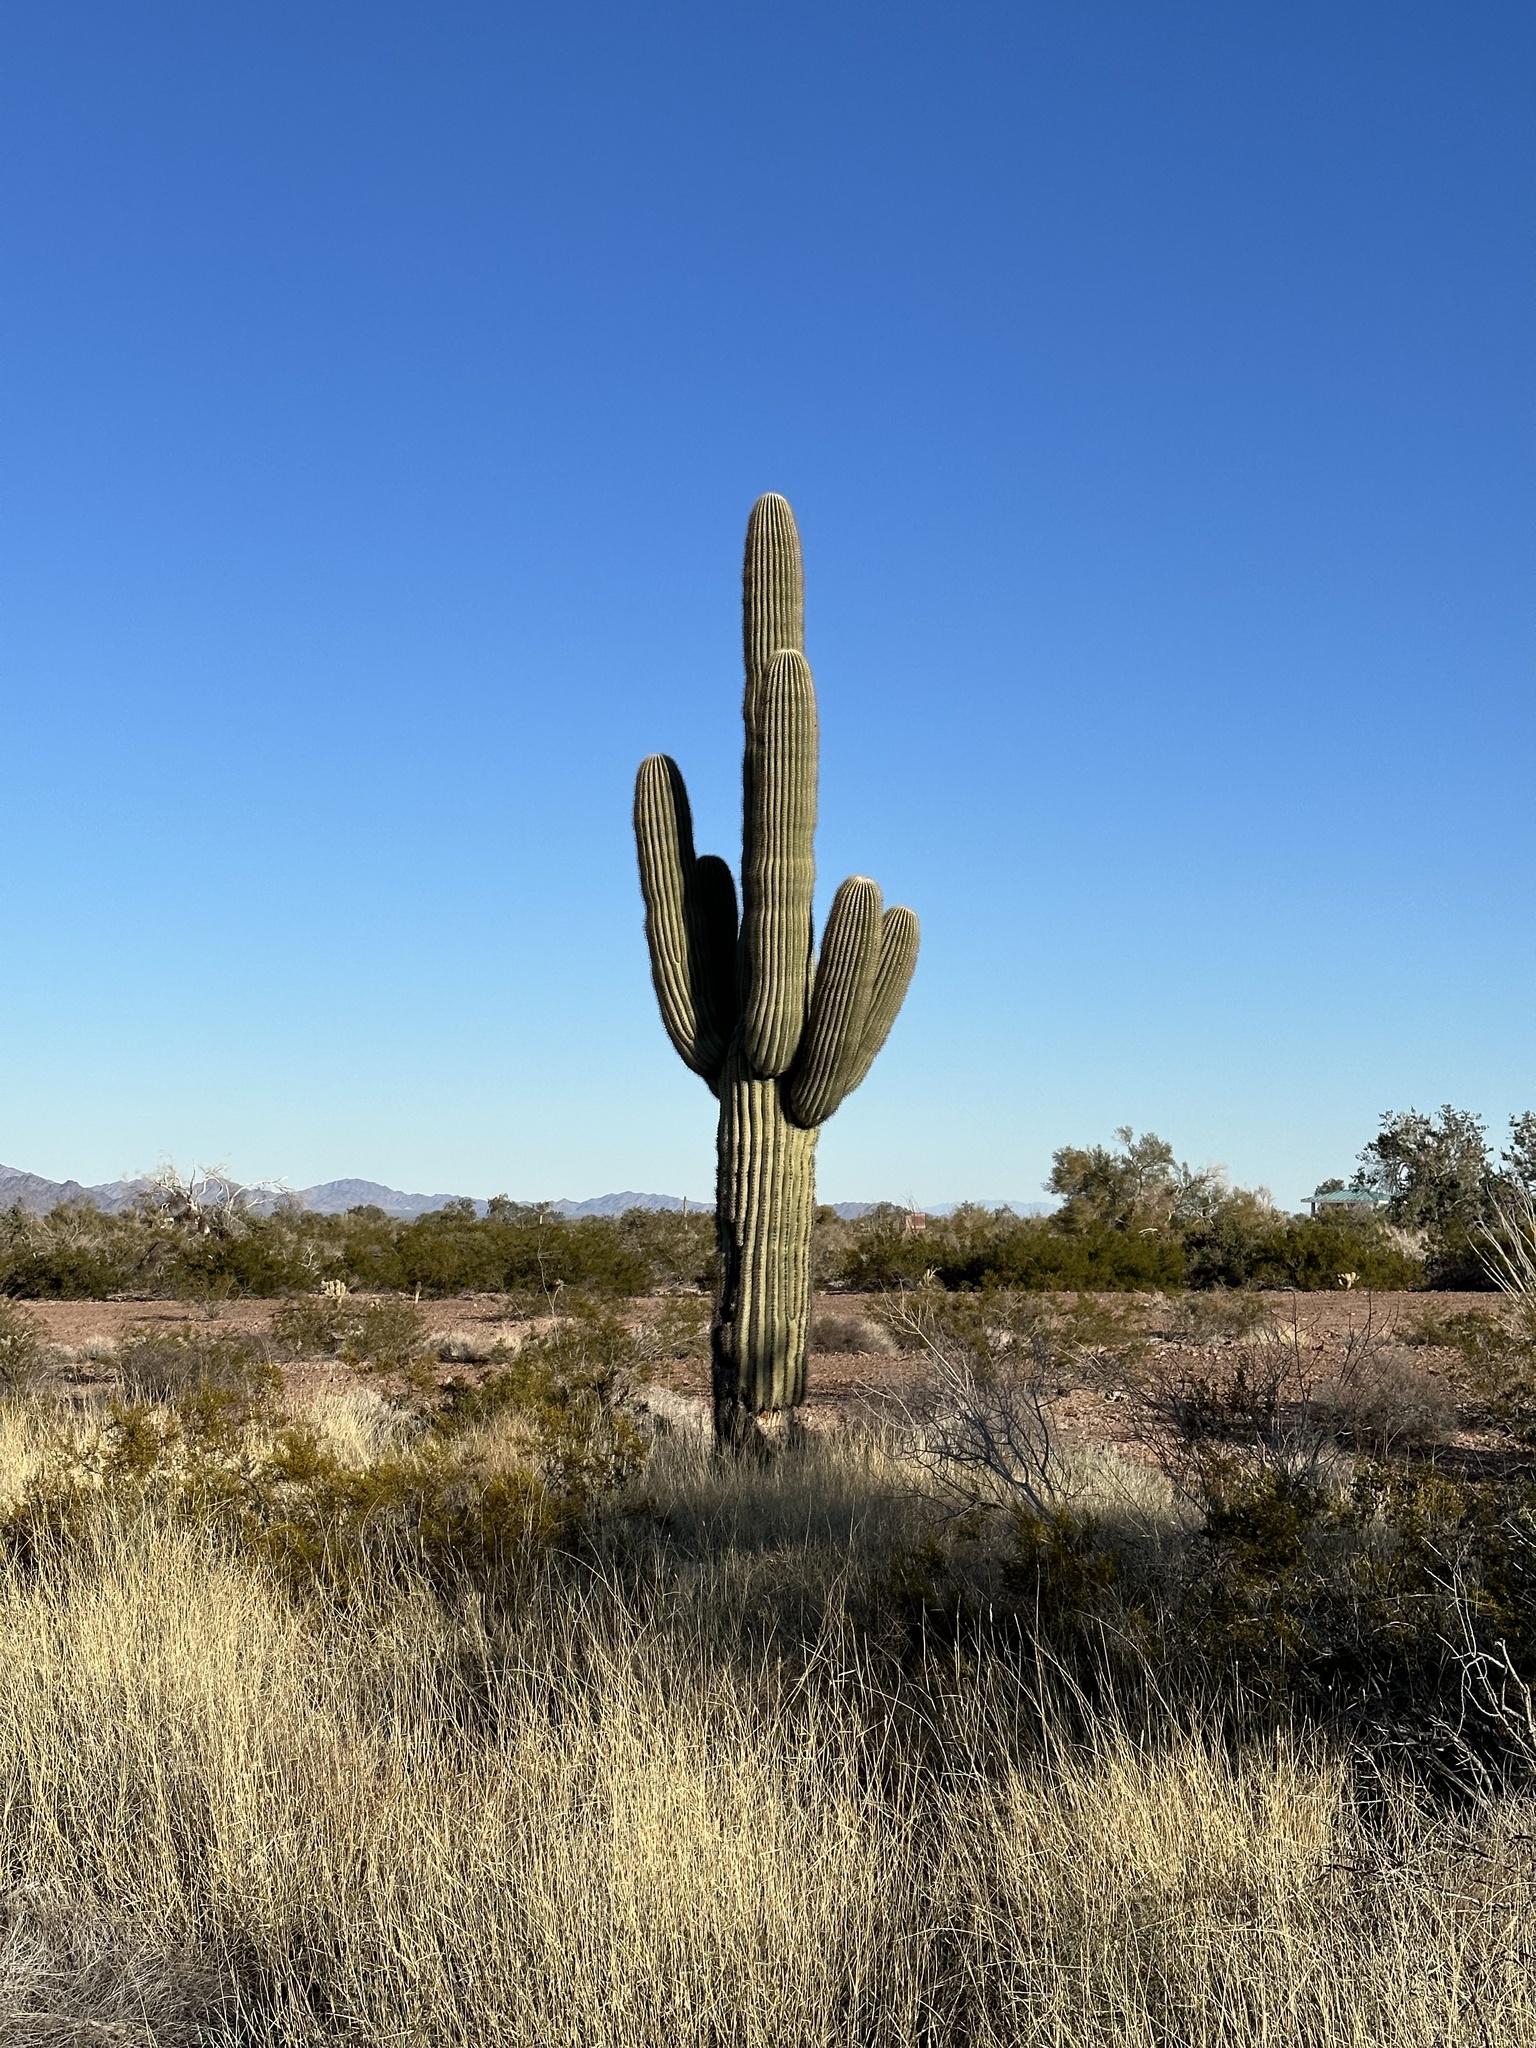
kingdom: Plantae
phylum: Tracheophyta
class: Liliopsida
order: Poales
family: Poaceae
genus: Hilaria
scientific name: Hilaria rigida
